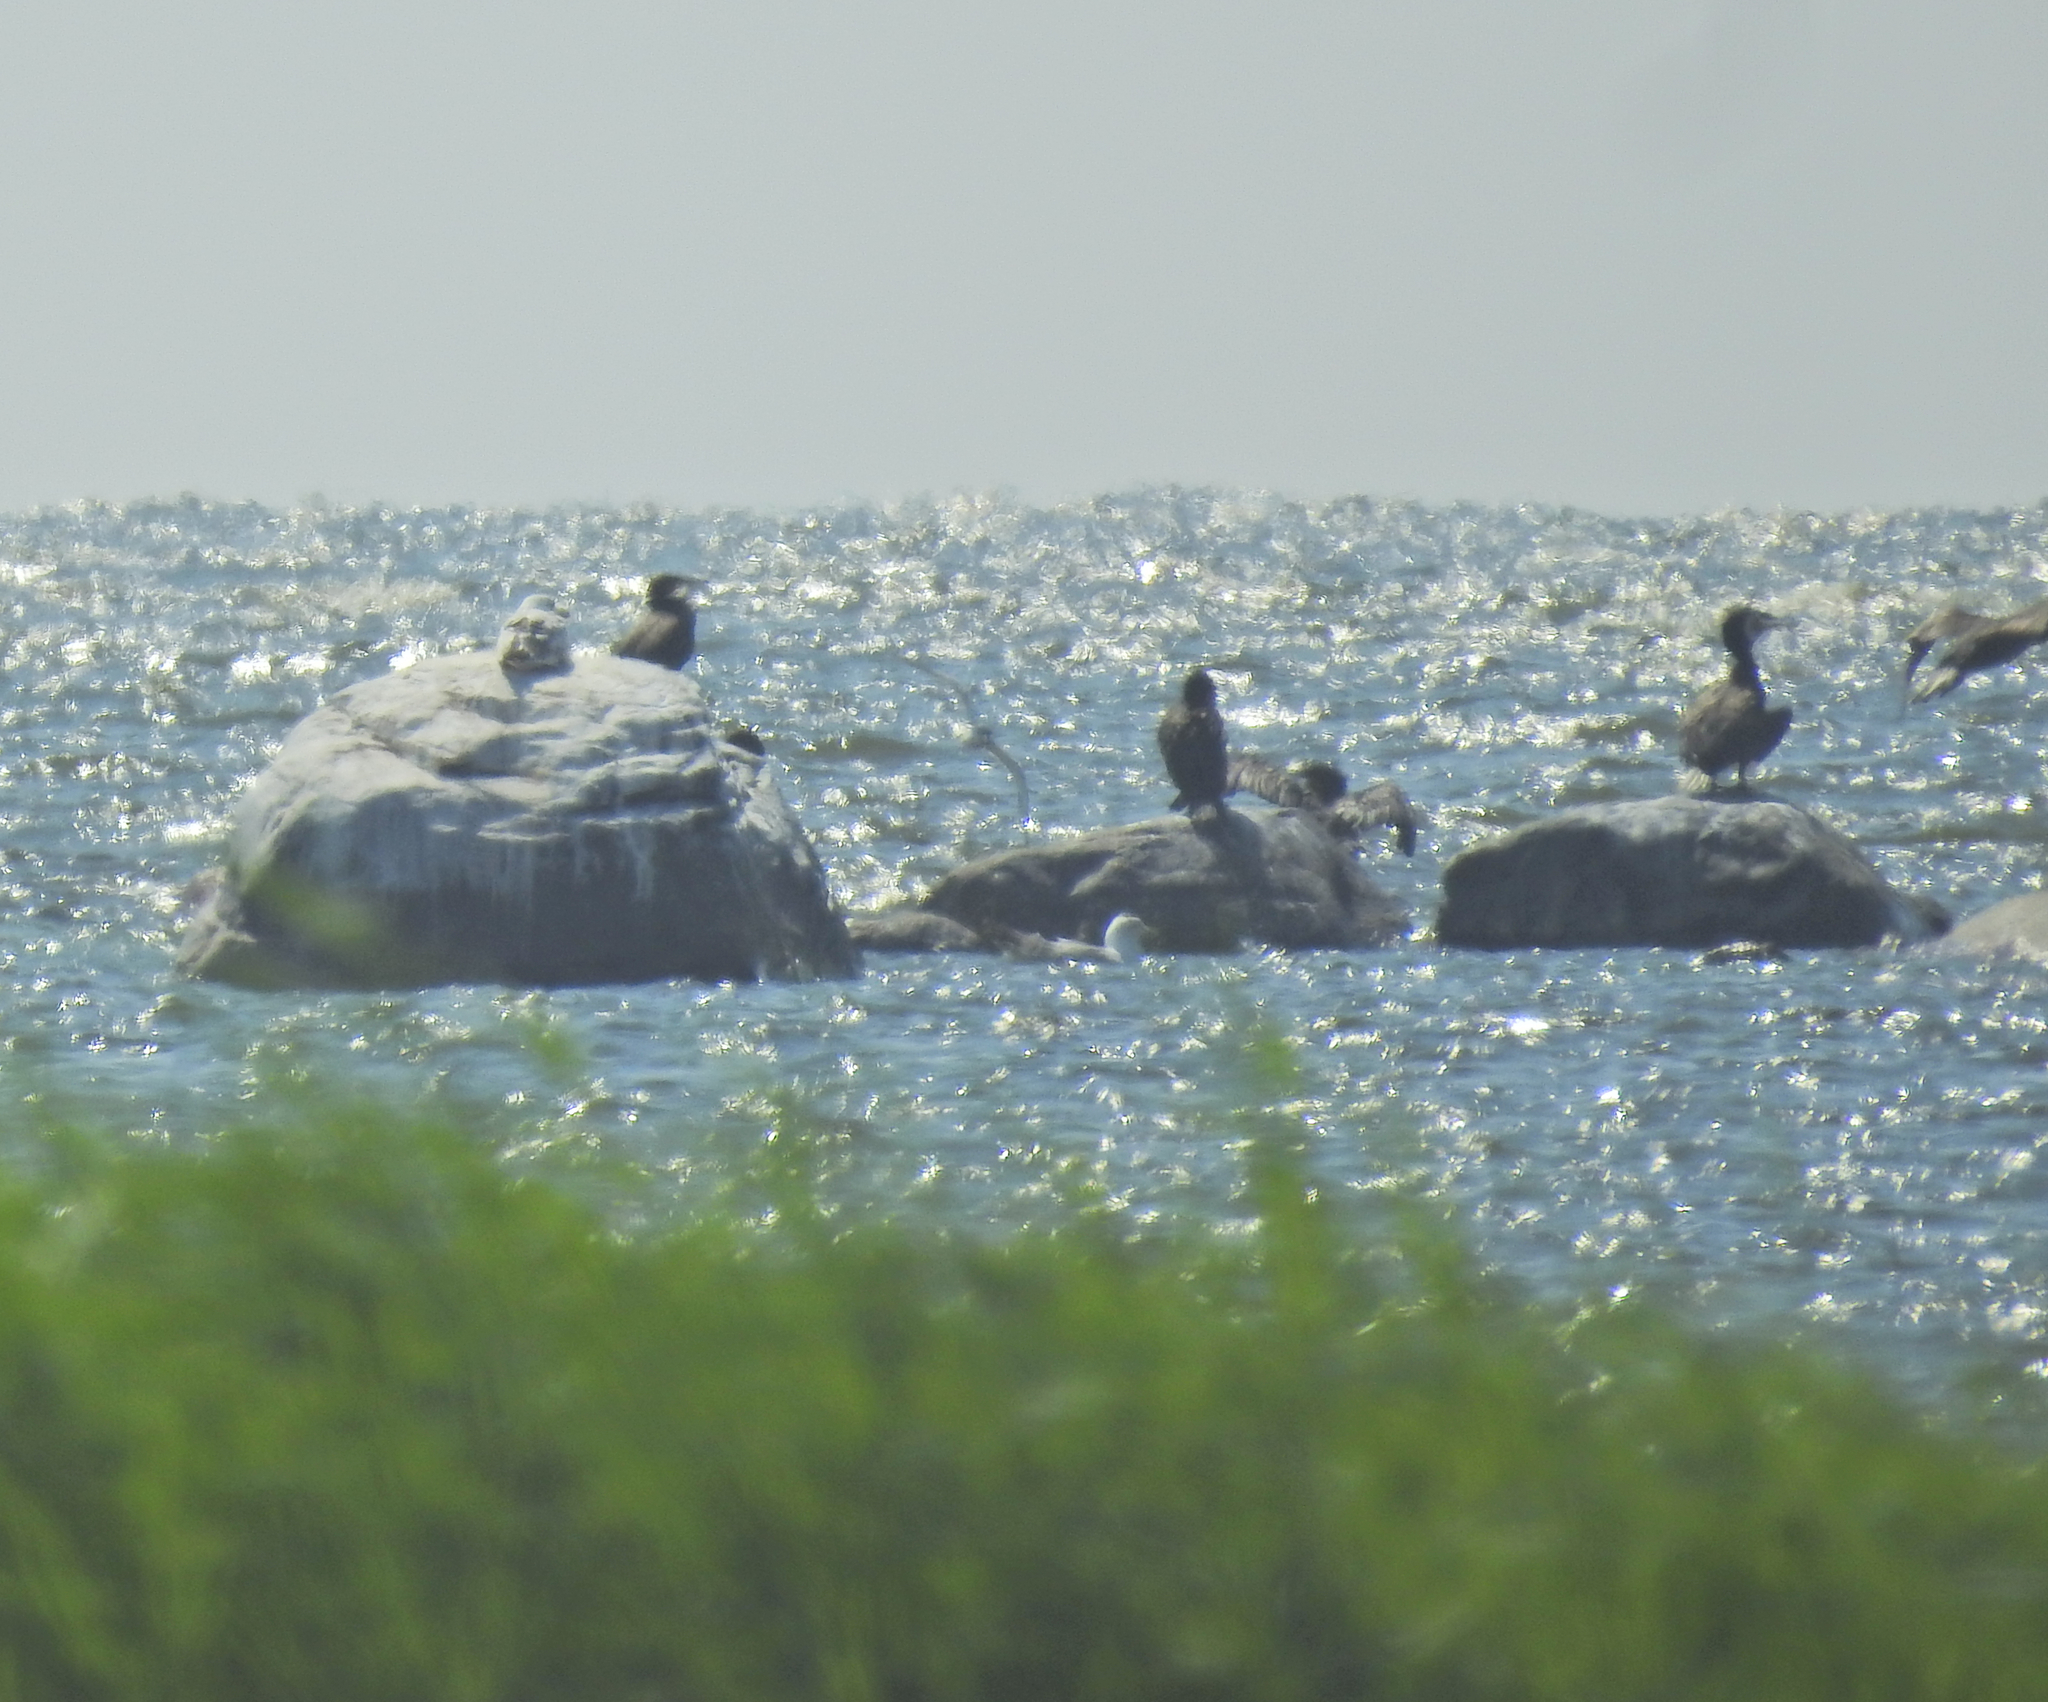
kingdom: Animalia
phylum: Chordata
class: Aves
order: Suliformes
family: Phalacrocoracidae
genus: Phalacrocorax
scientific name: Phalacrocorax carbo
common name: Great cormorant
